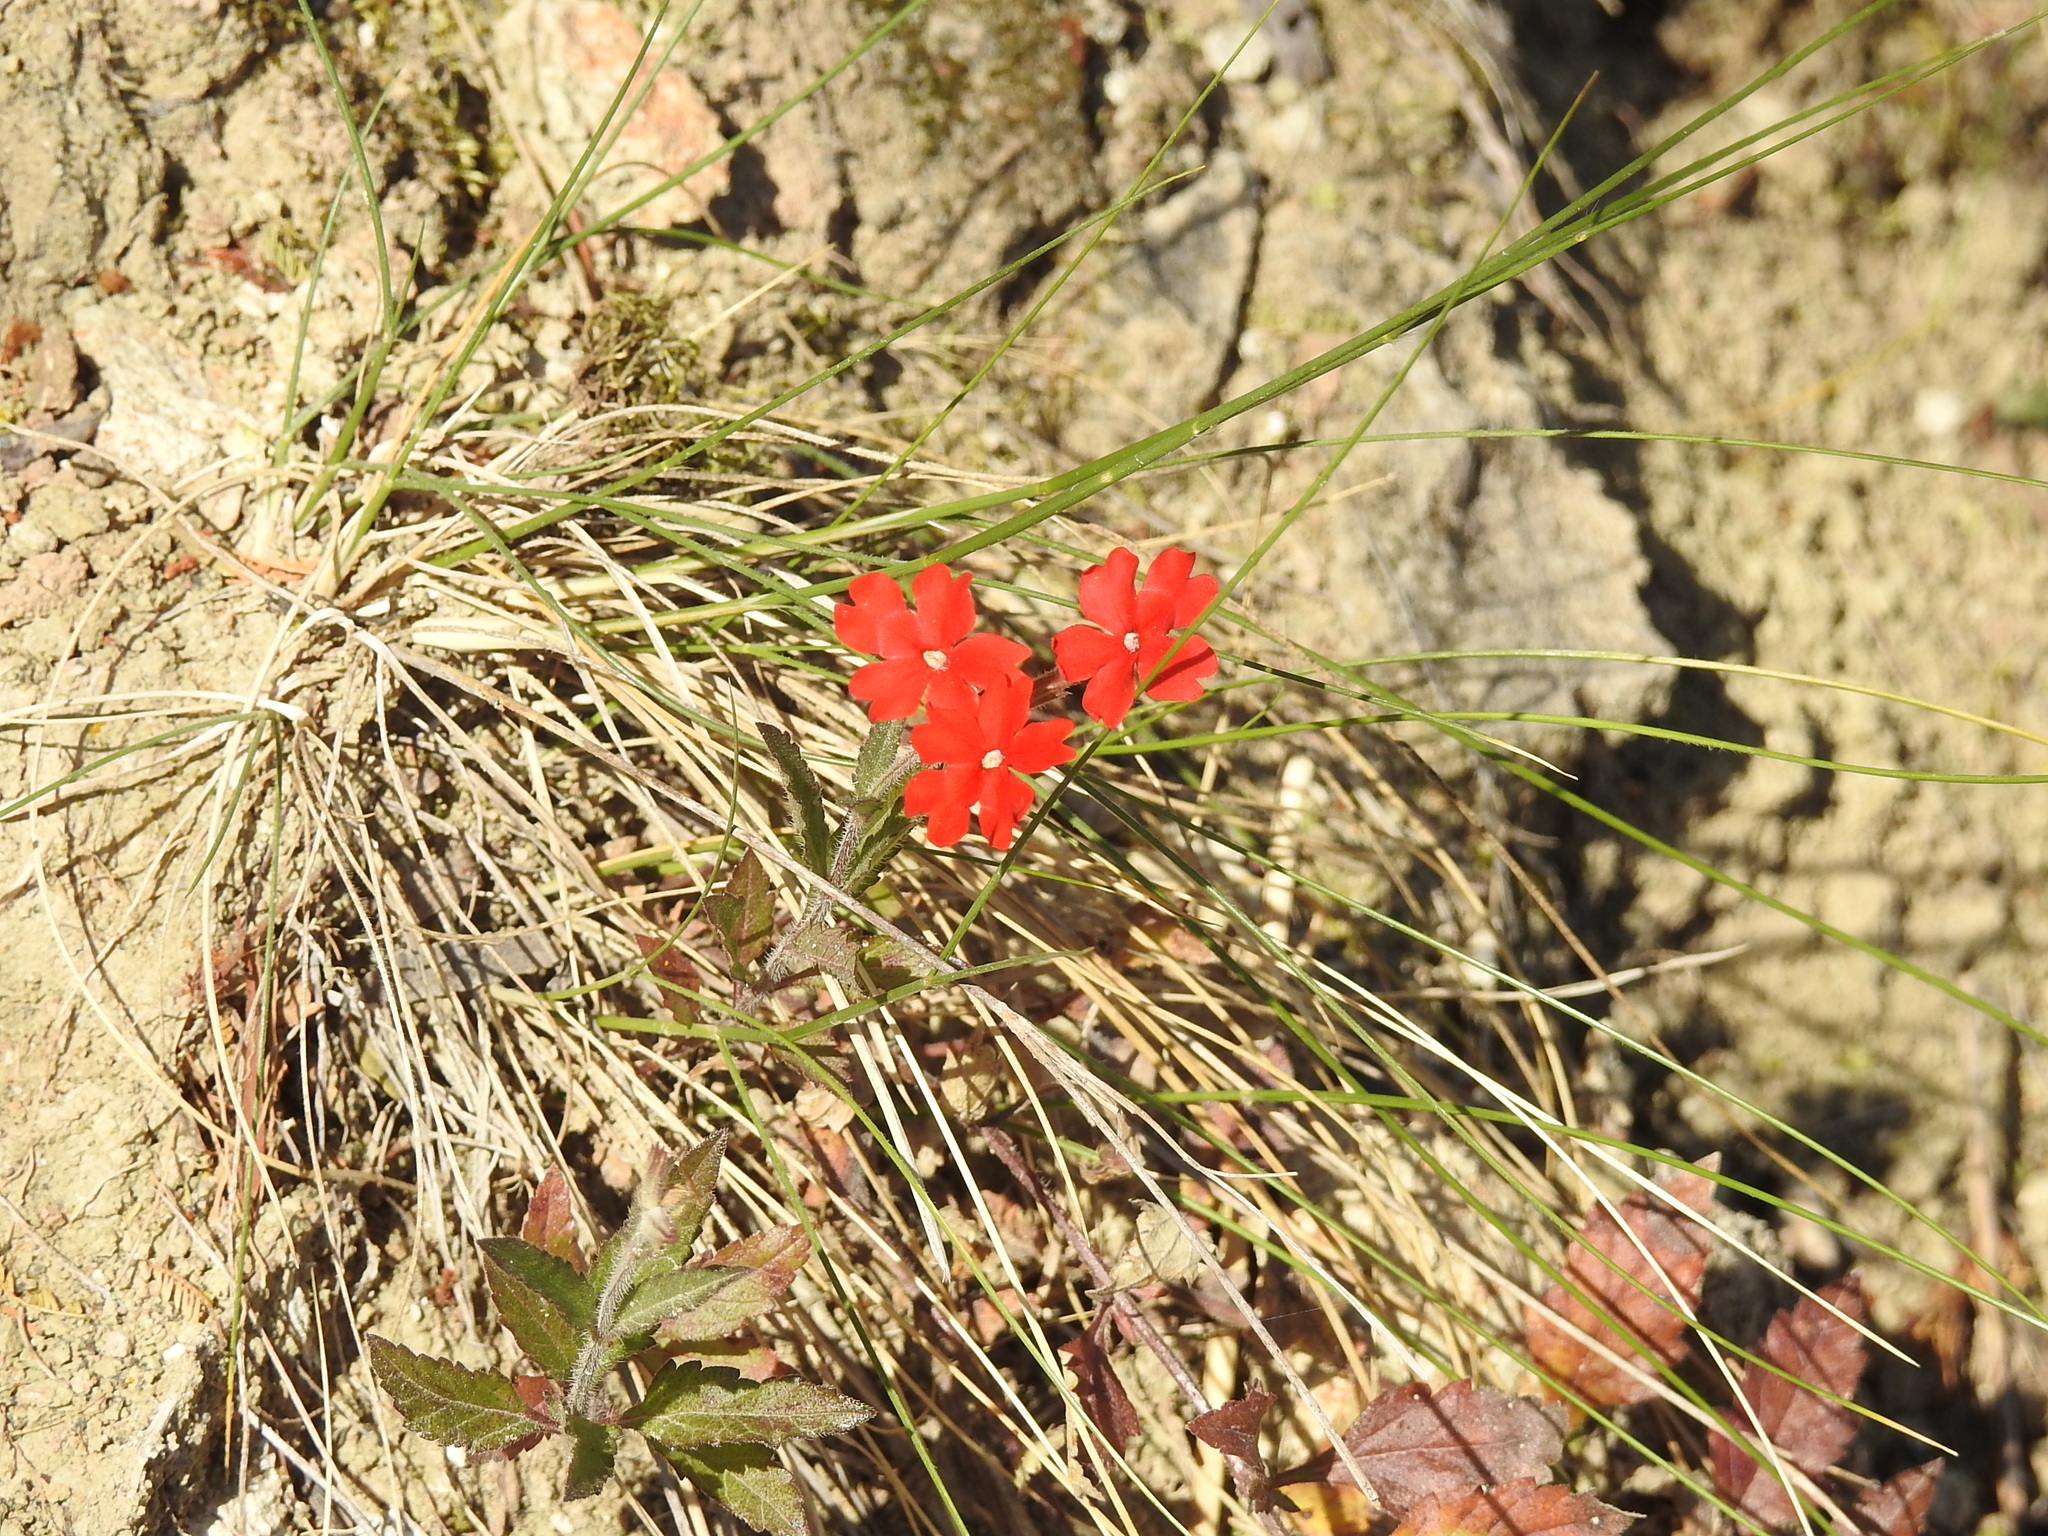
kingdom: Plantae
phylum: Tracheophyta
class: Magnoliopsida
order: Lamiales
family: Verbenaceae
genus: Verbena
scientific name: Verbena peruviana
